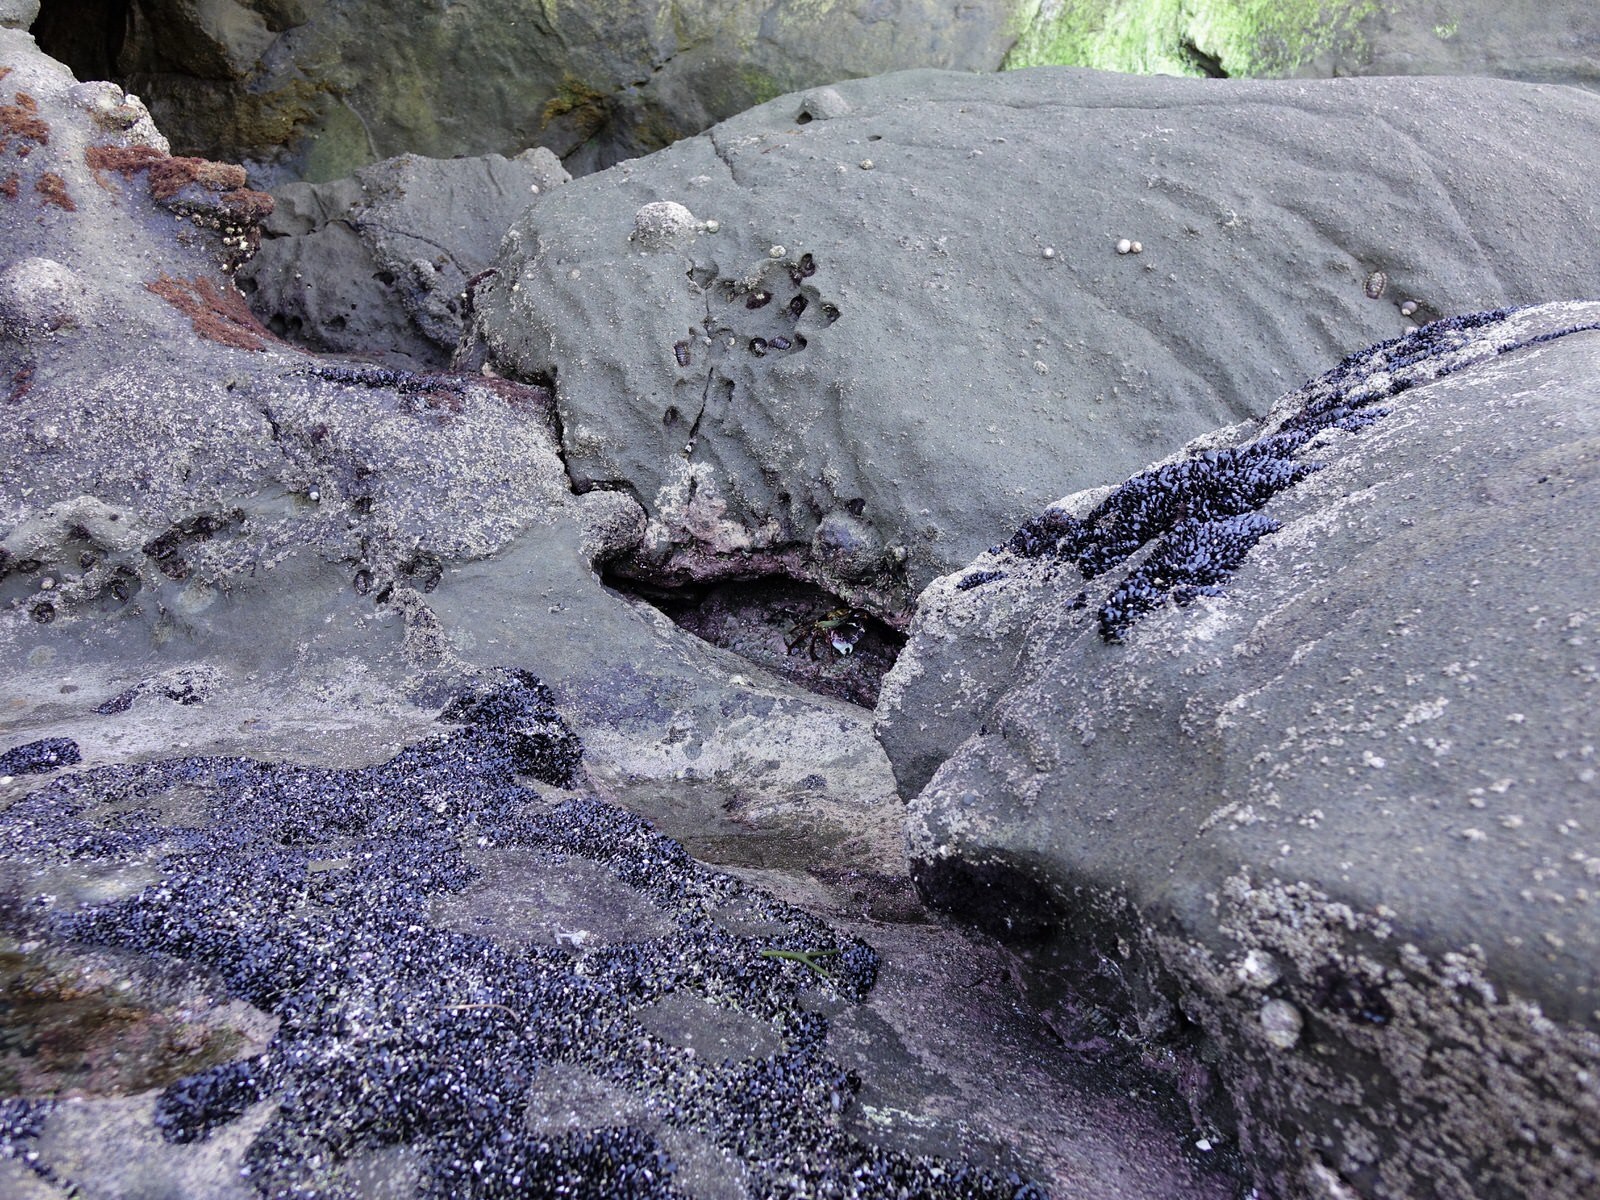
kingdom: Animalia
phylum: Arthropoda
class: Malacostraca
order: Decapoda
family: Grapsidae
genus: Leptograpsus
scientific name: Leptograpsus variegatus
